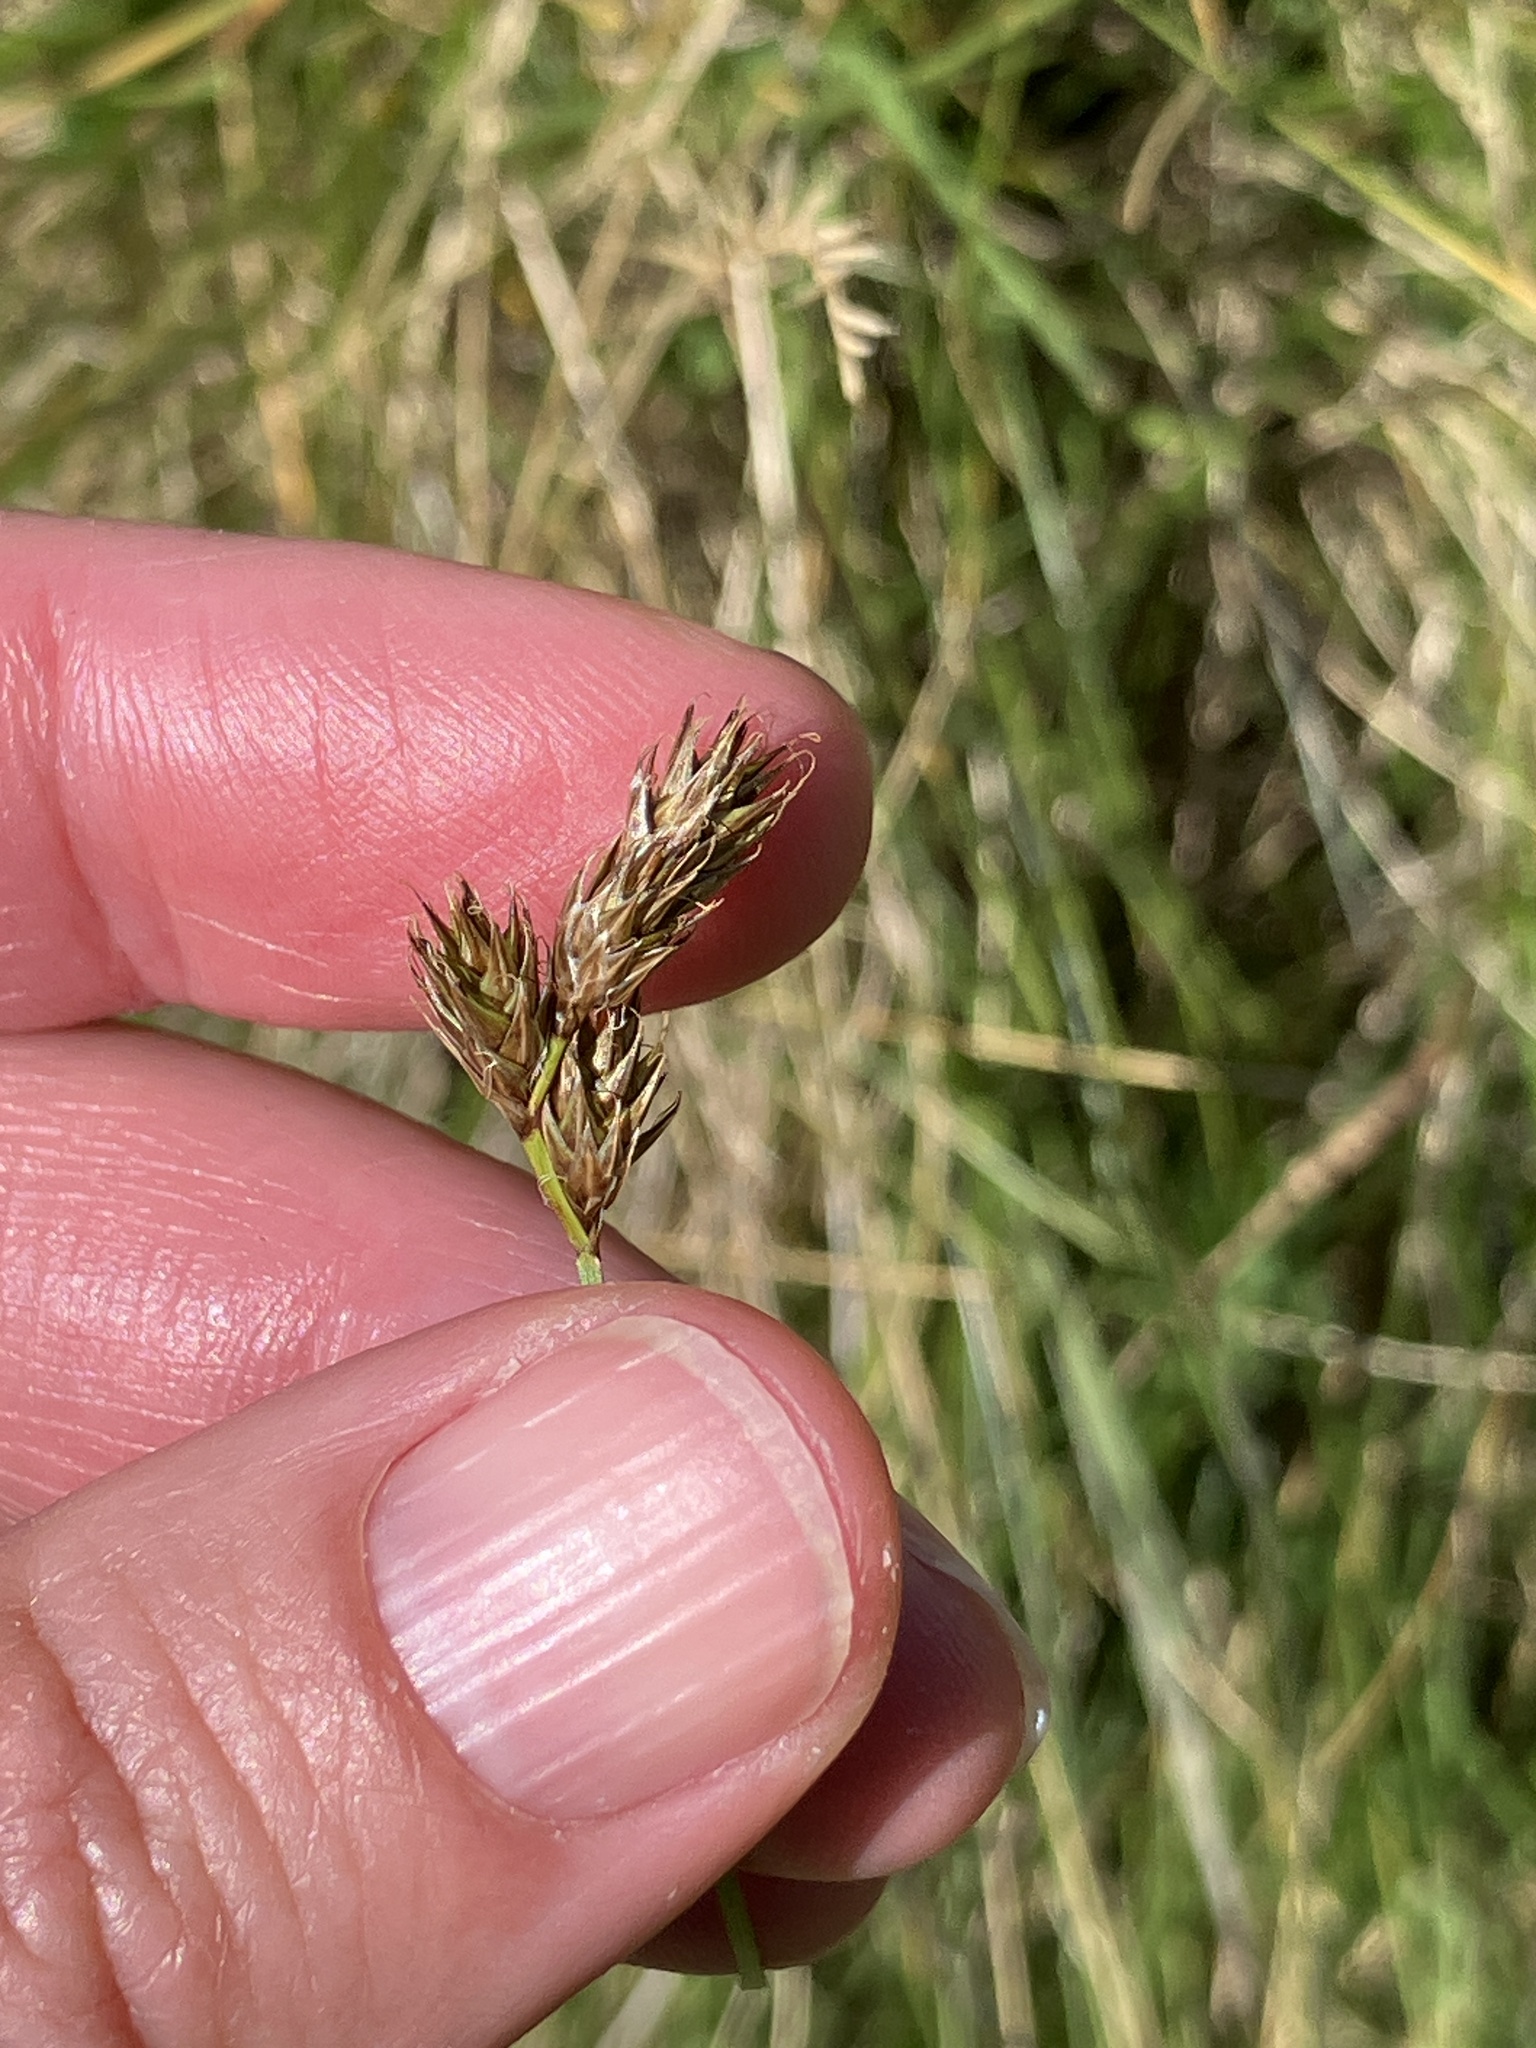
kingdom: Plantae
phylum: Tracheophyta
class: Liliopsida
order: Poales
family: Cyperaceae
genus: Carex
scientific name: Carex leporina
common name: Oval sedge
